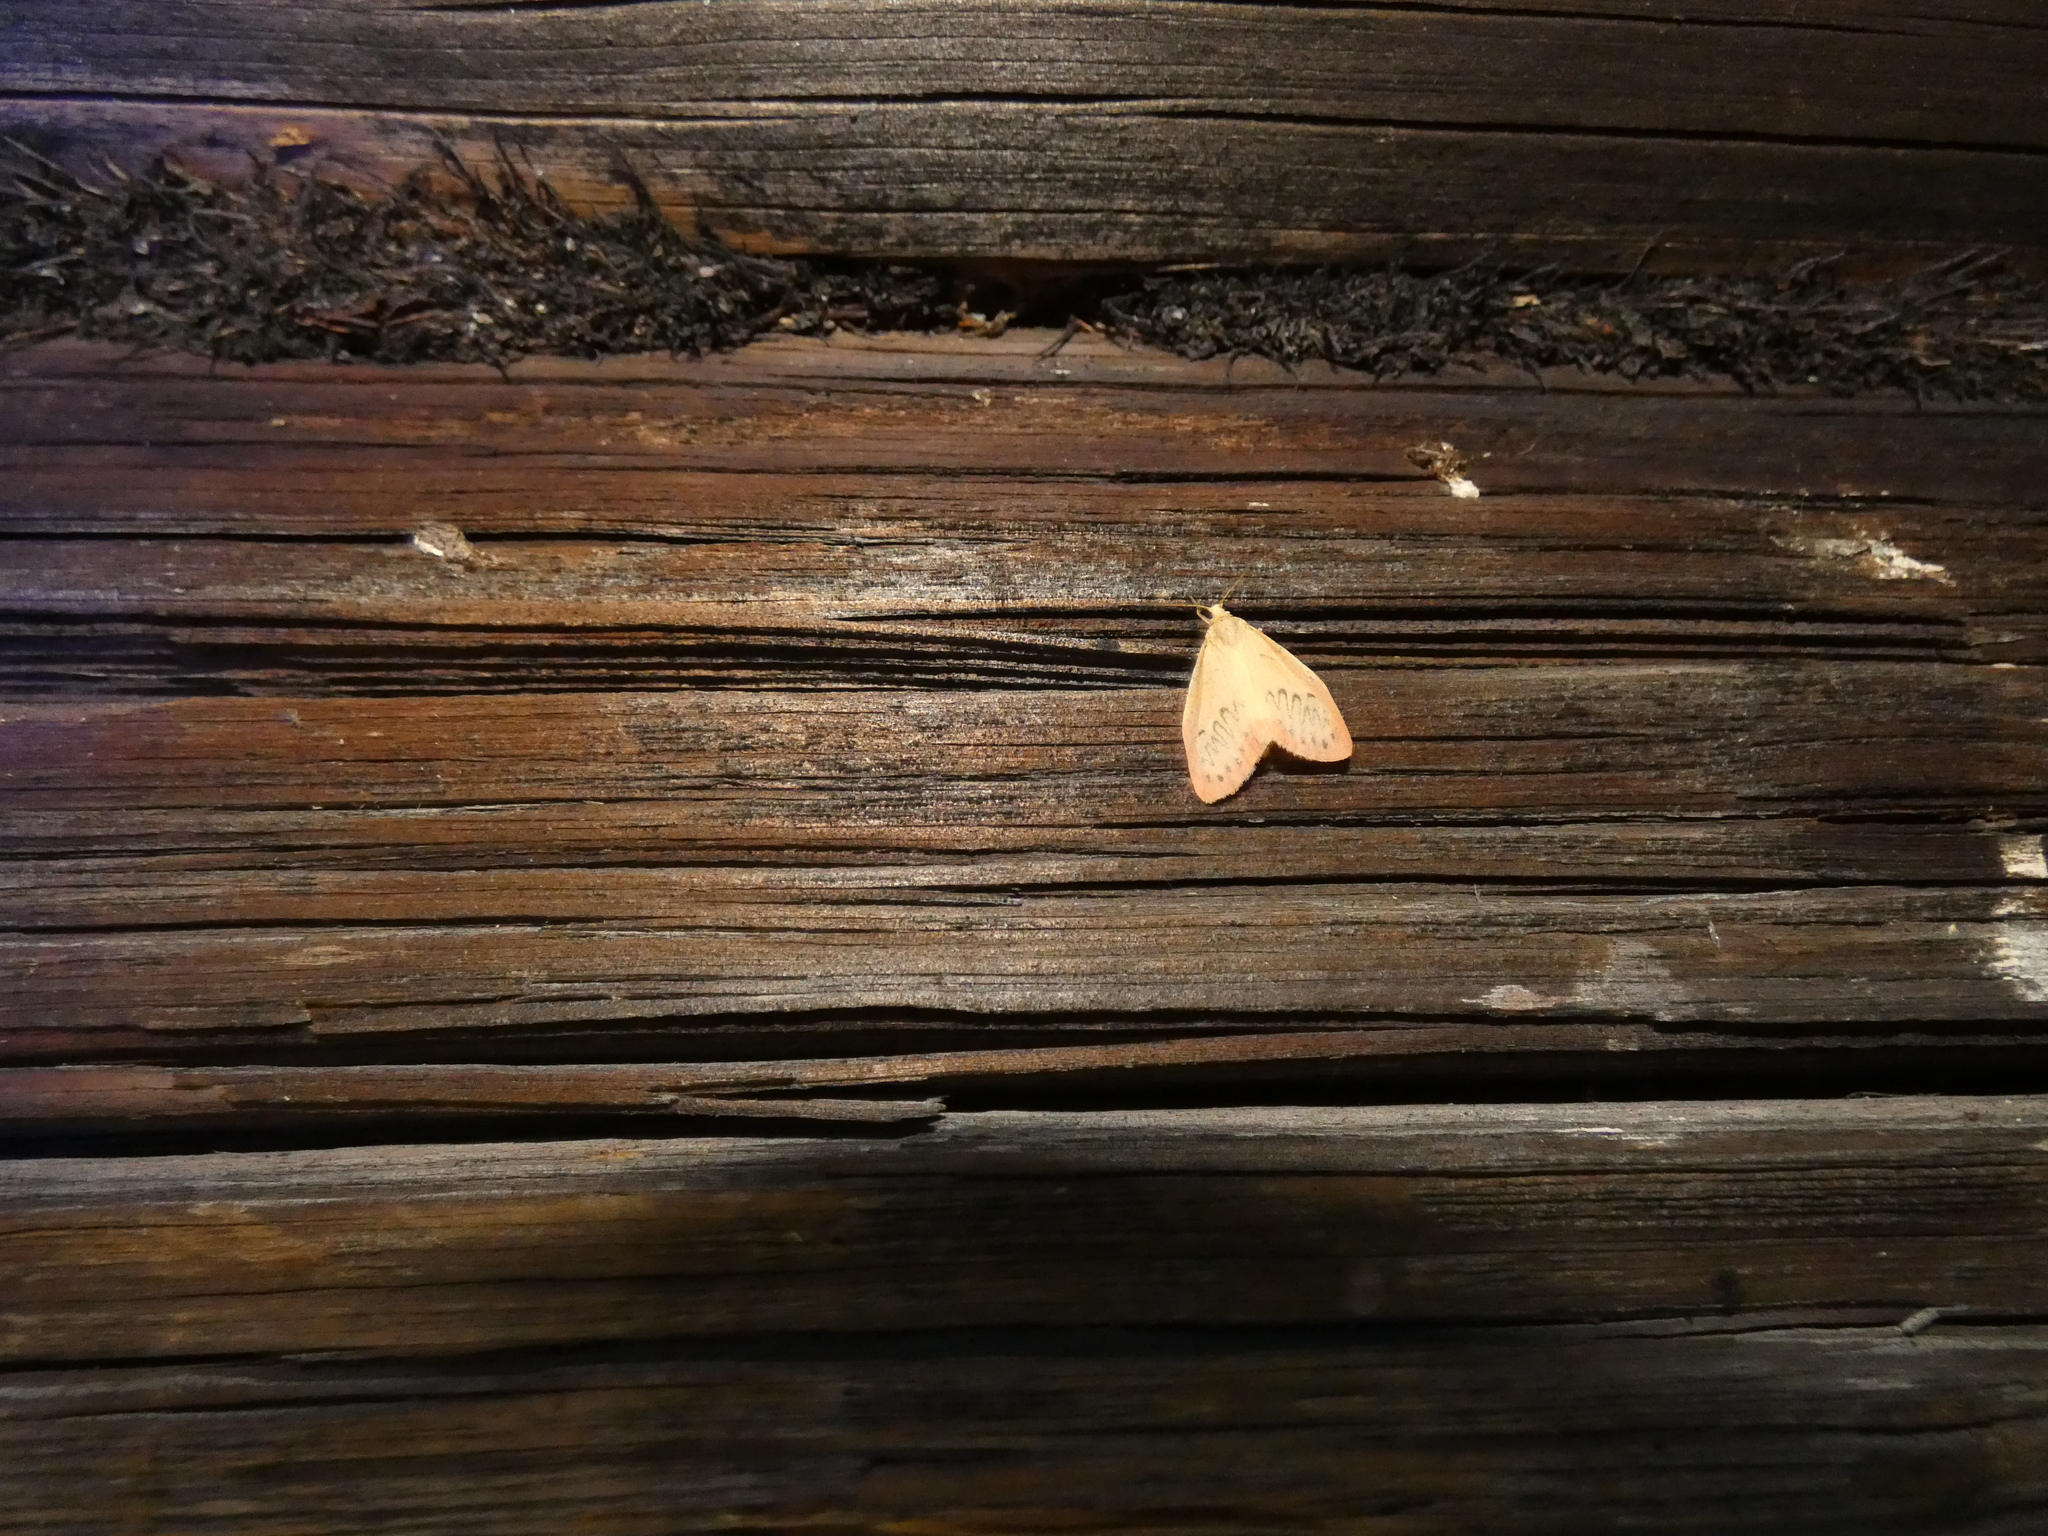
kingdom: Animalia
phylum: Arthropoda
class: Insecta
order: Lepidoptera
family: Erebidae
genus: Miltochrista
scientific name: Miltochrista miniata
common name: Rosy footman
